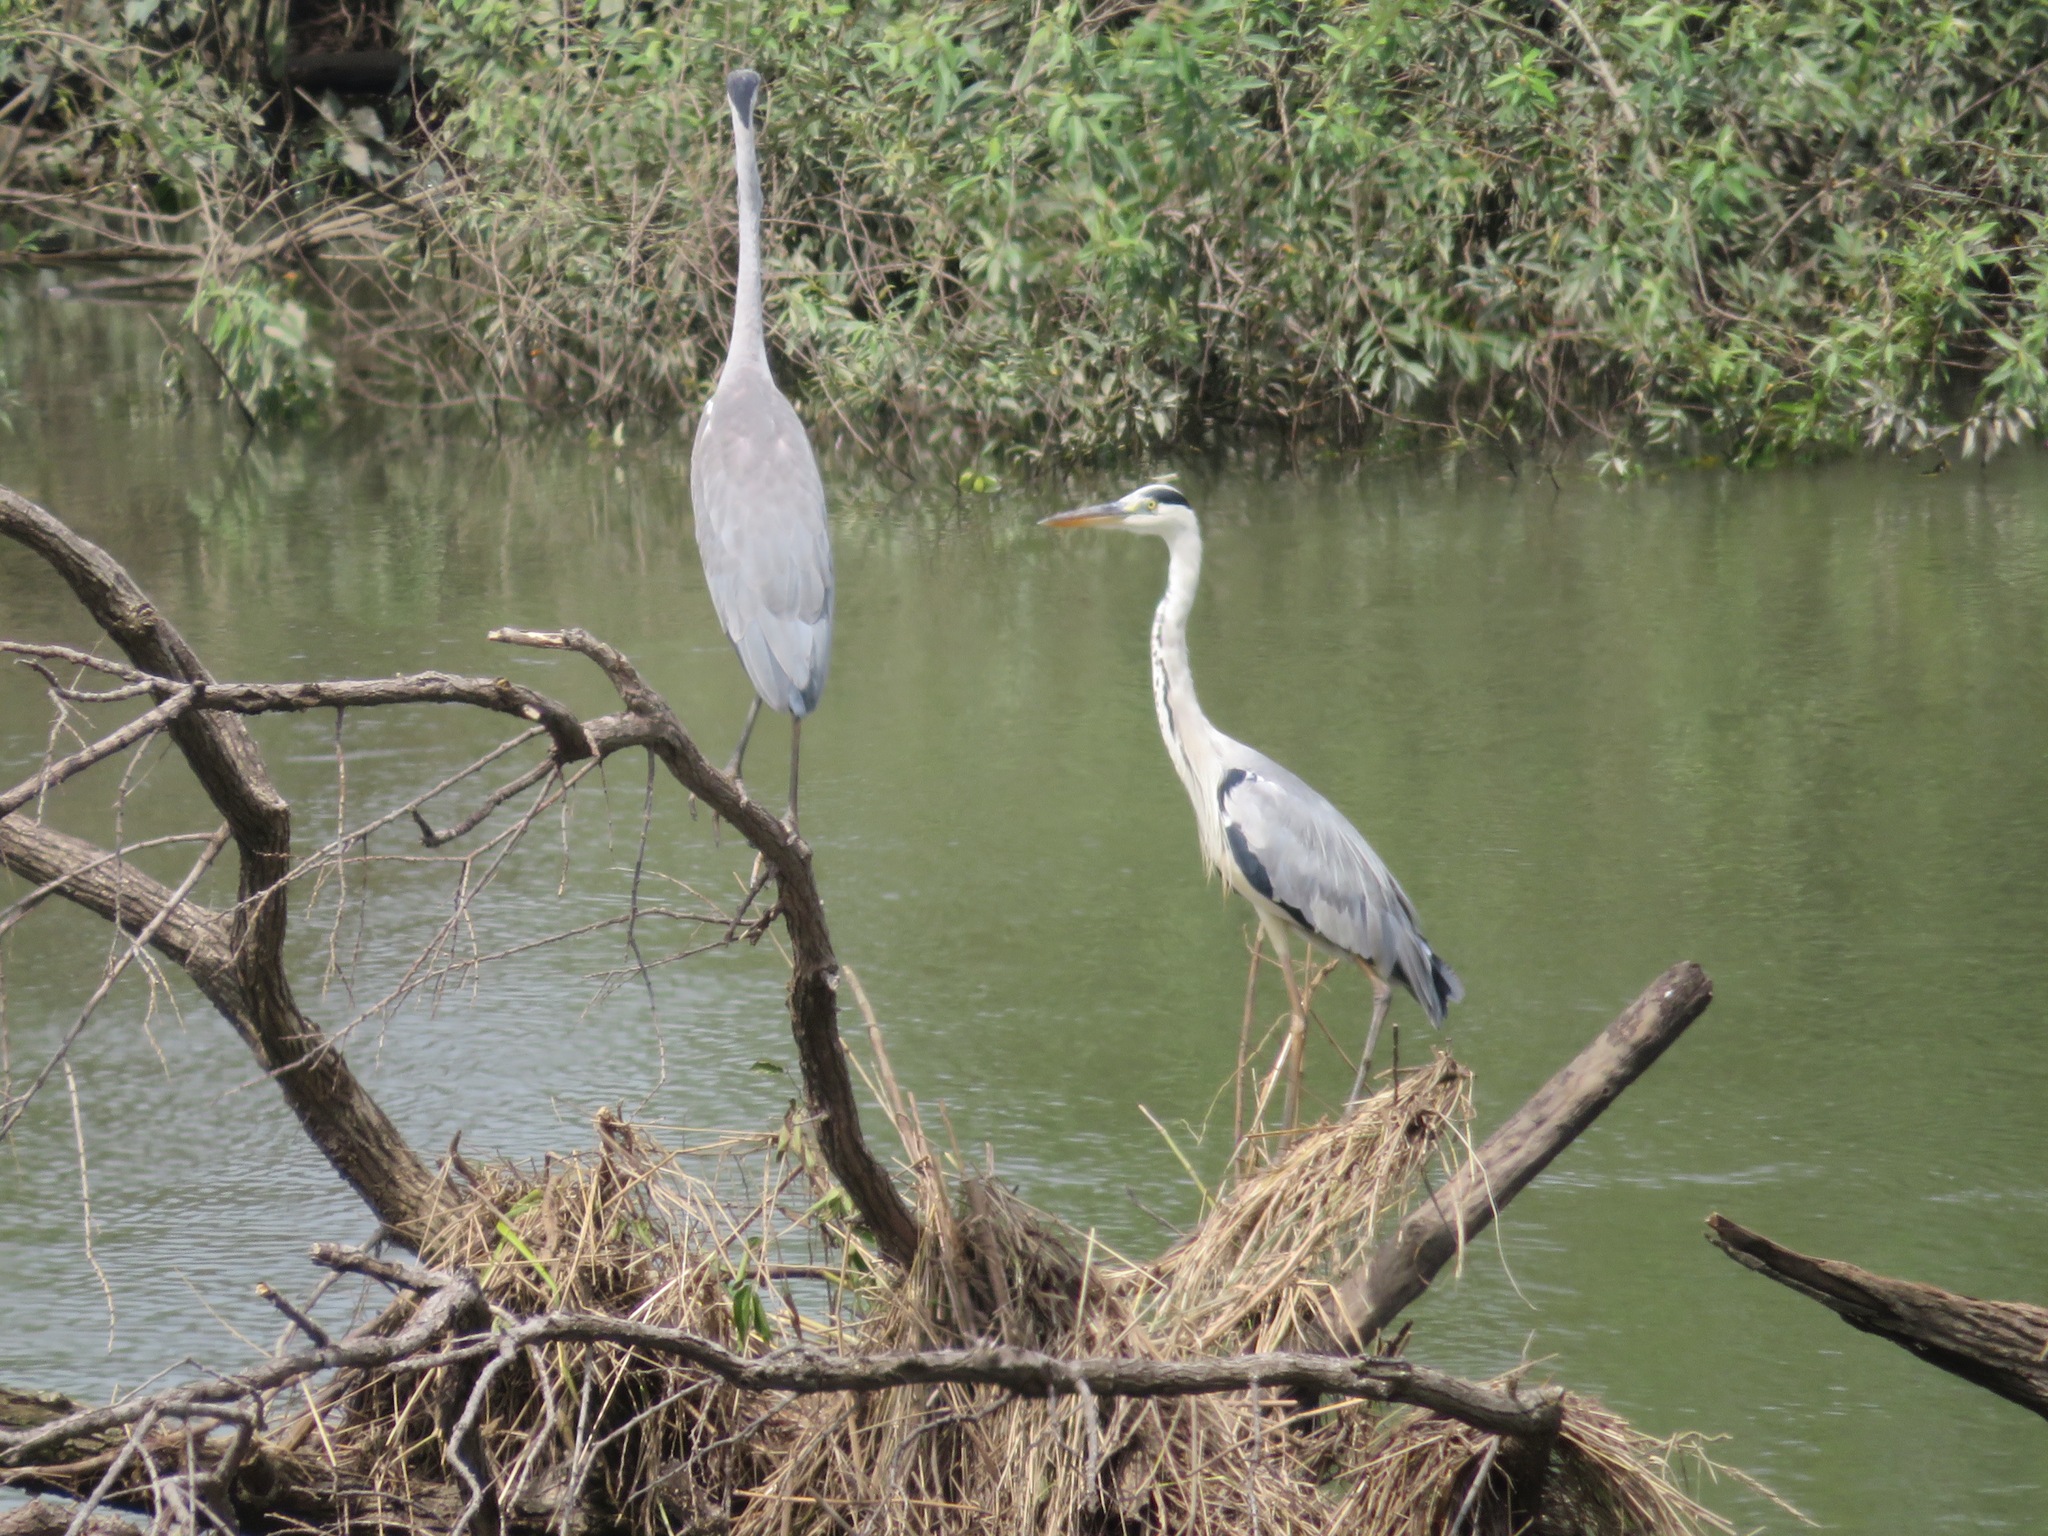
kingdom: Animalia
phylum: Chordata
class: Aves
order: Pelecaniformes
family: Ardeidae
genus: Ardea
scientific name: Ardea cinerea
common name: Grey heron
